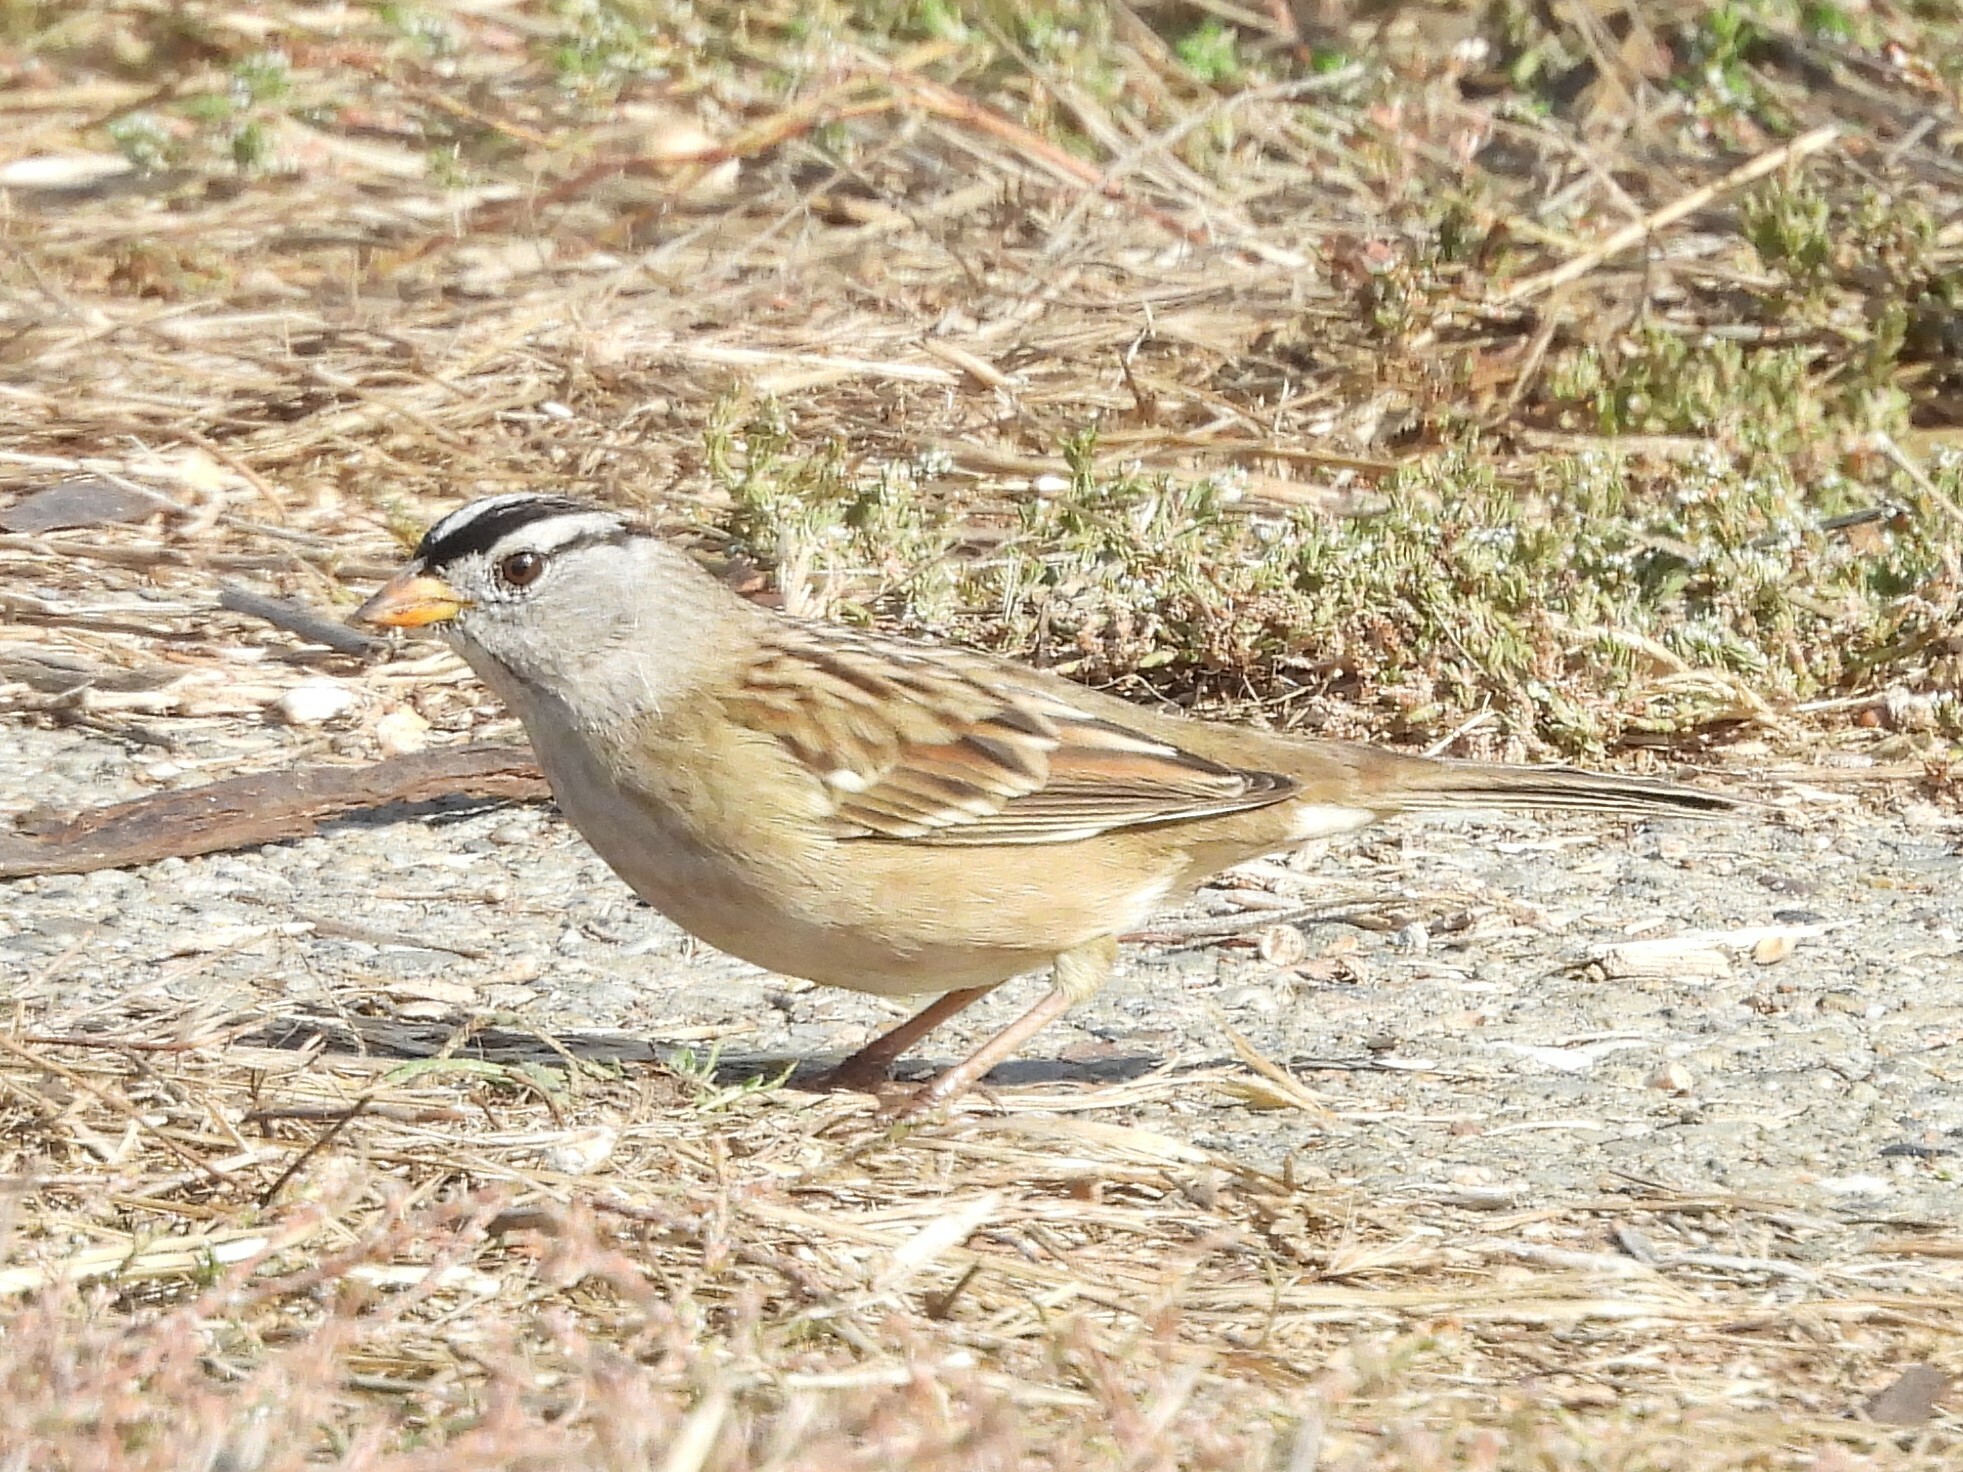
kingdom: Animalia
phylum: Chordata
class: Aves
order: Passeriformes
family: Passerellidae
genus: Zonotrichia
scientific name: Zonotrichia leucophrys
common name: White-crowned sparrow
